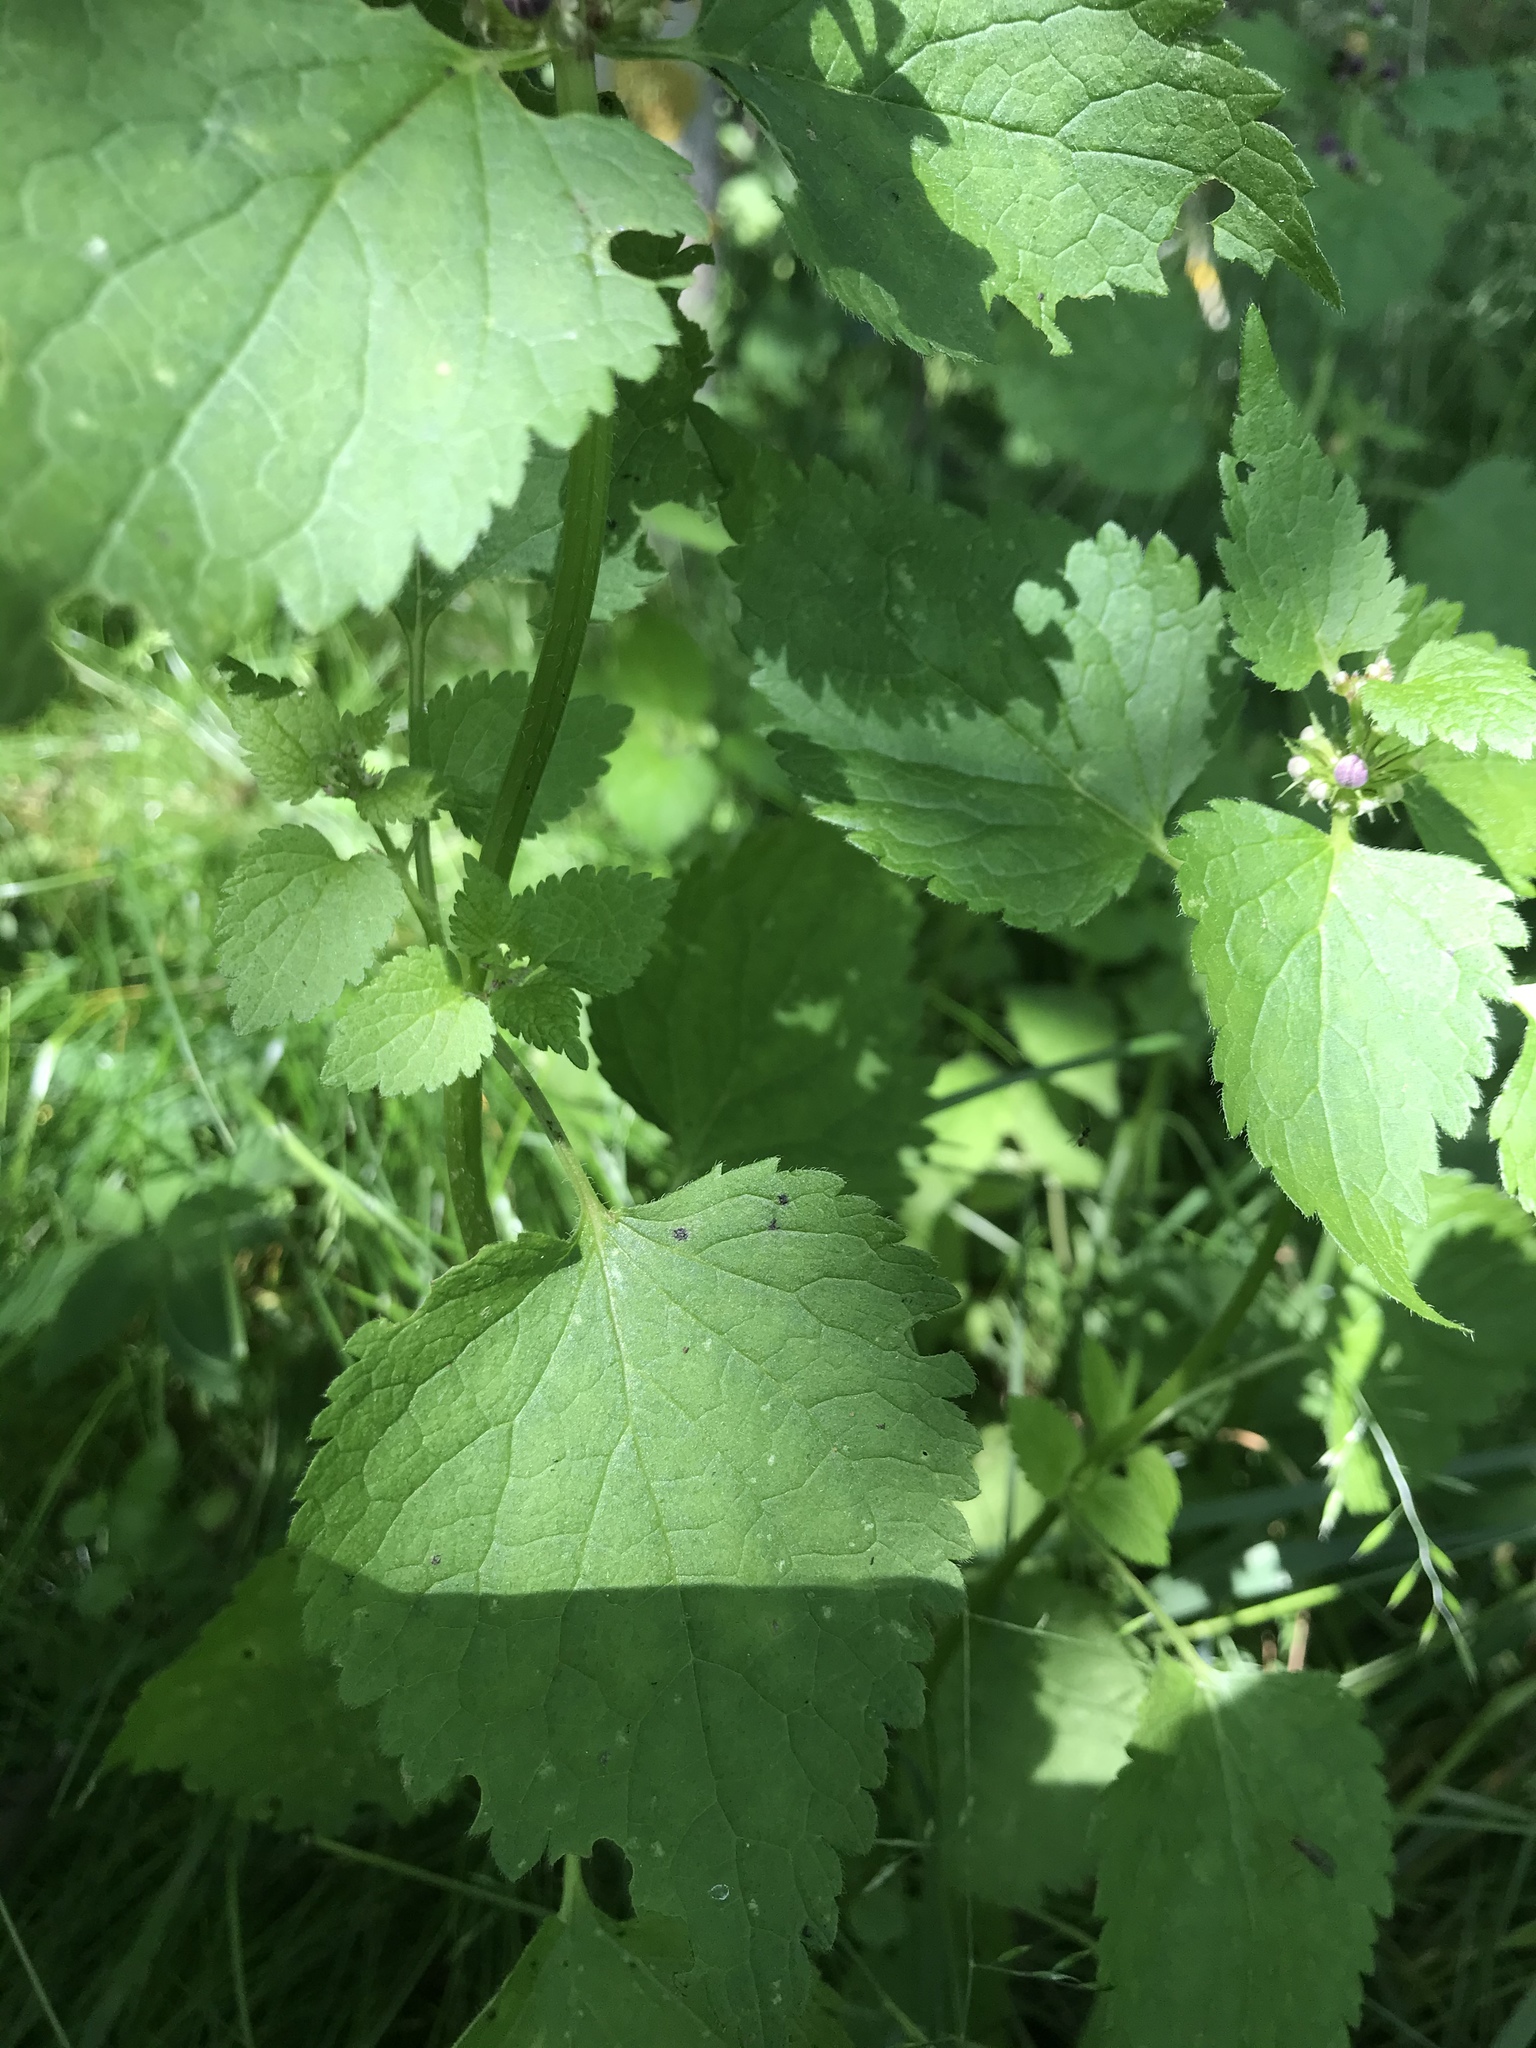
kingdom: Plantae
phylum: Tracheophyta
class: Magnoliopsida
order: Lamiales
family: Lamiaceae
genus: Lamium
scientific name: Lamium maculatum
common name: Spotted dead-nettle
